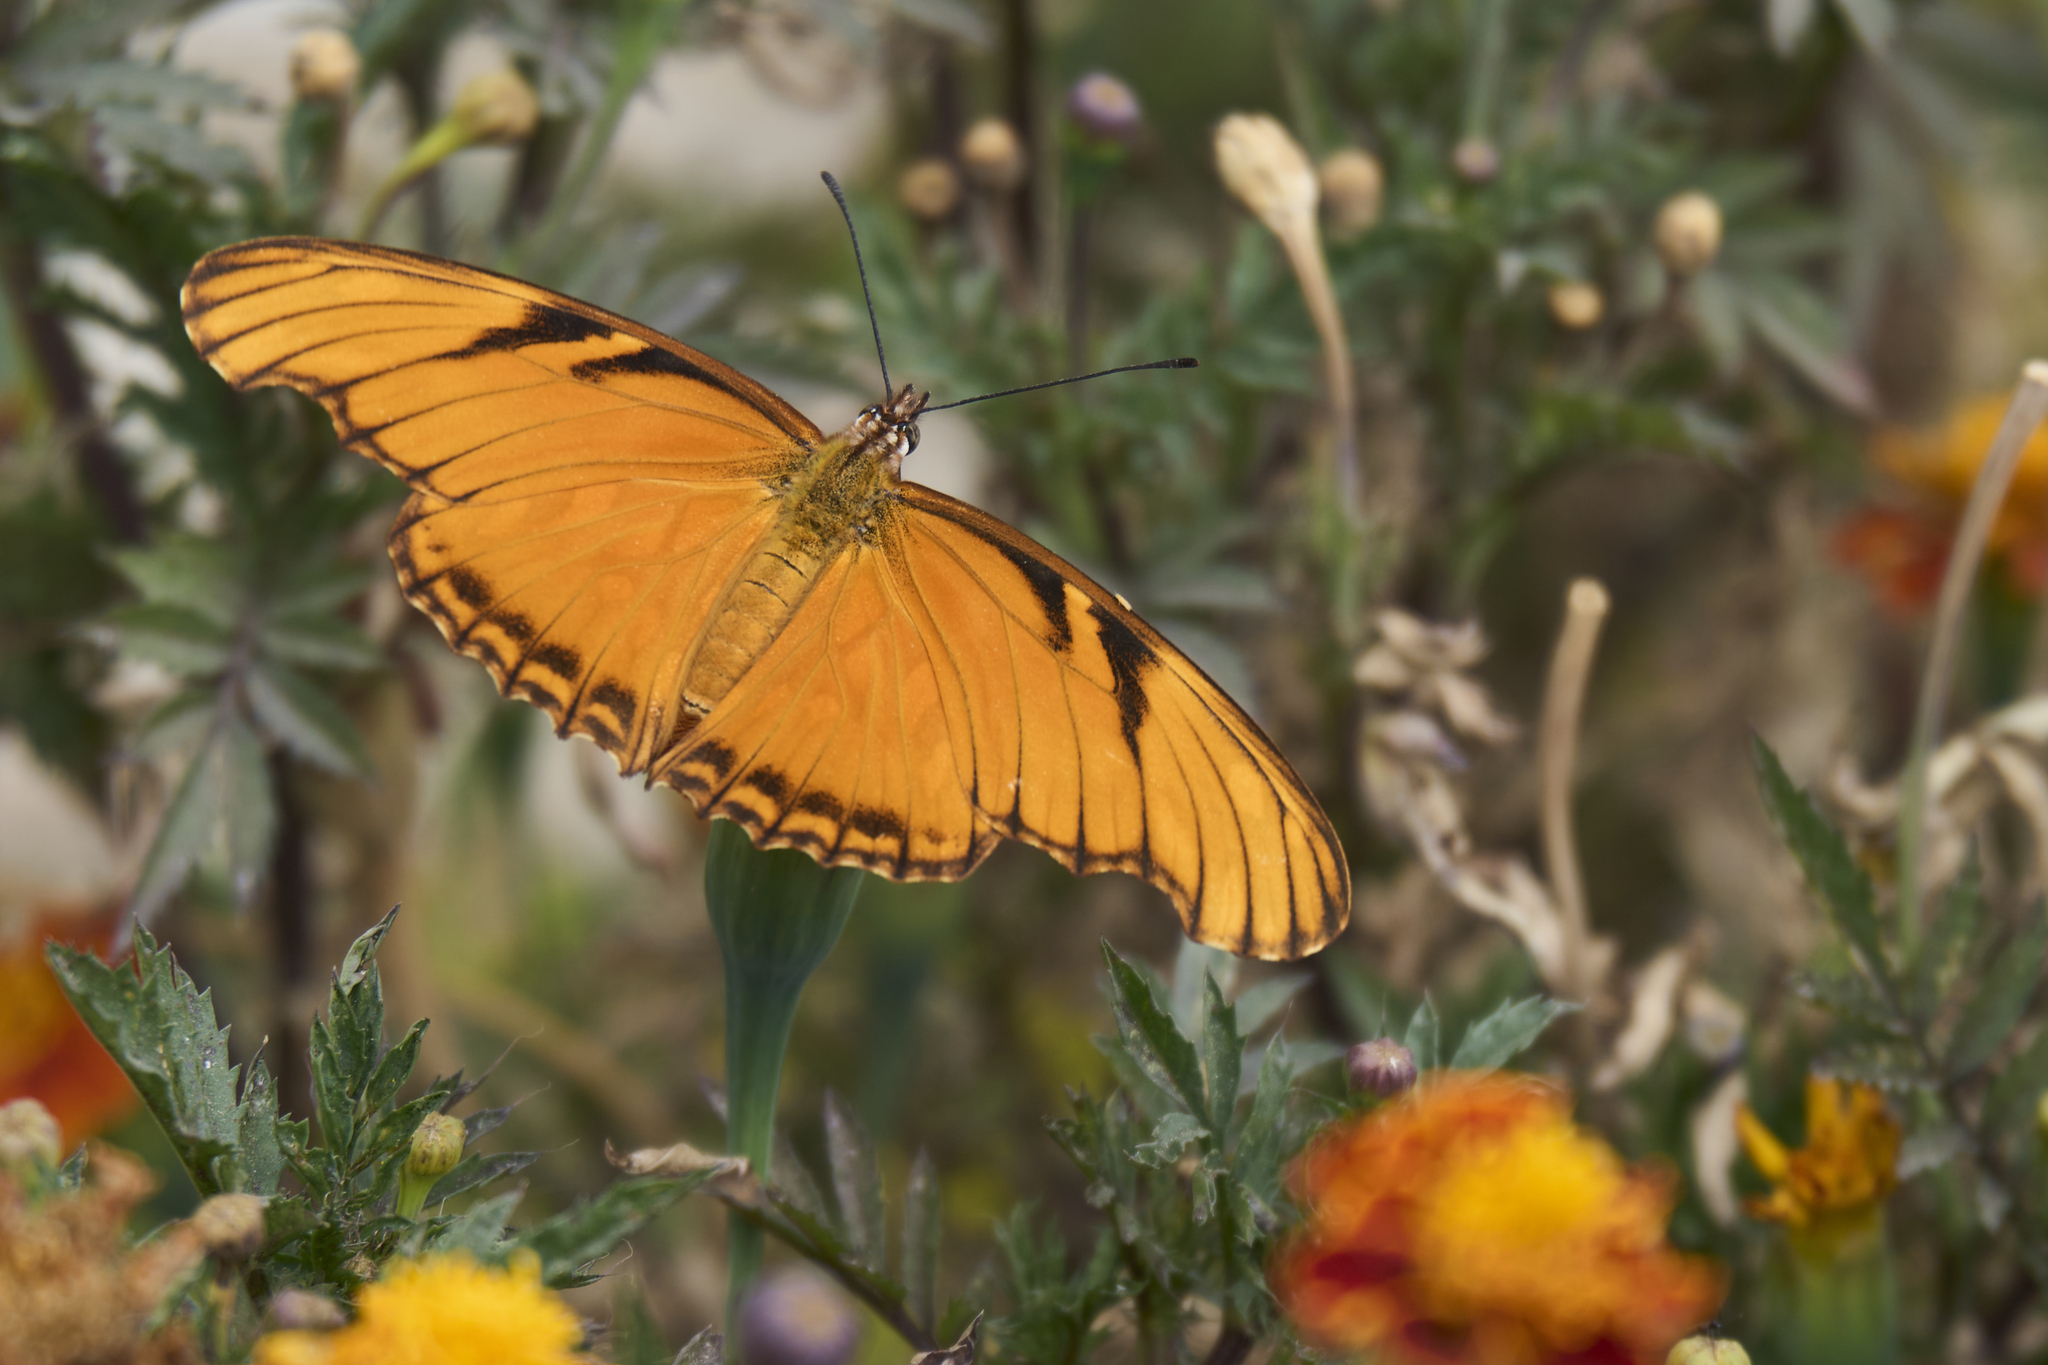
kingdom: Animalia
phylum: Arthropoda
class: Insecta
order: Lepidoptera
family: Nymphalidae
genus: Dione
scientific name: Dione juno
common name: Juno silverspot
